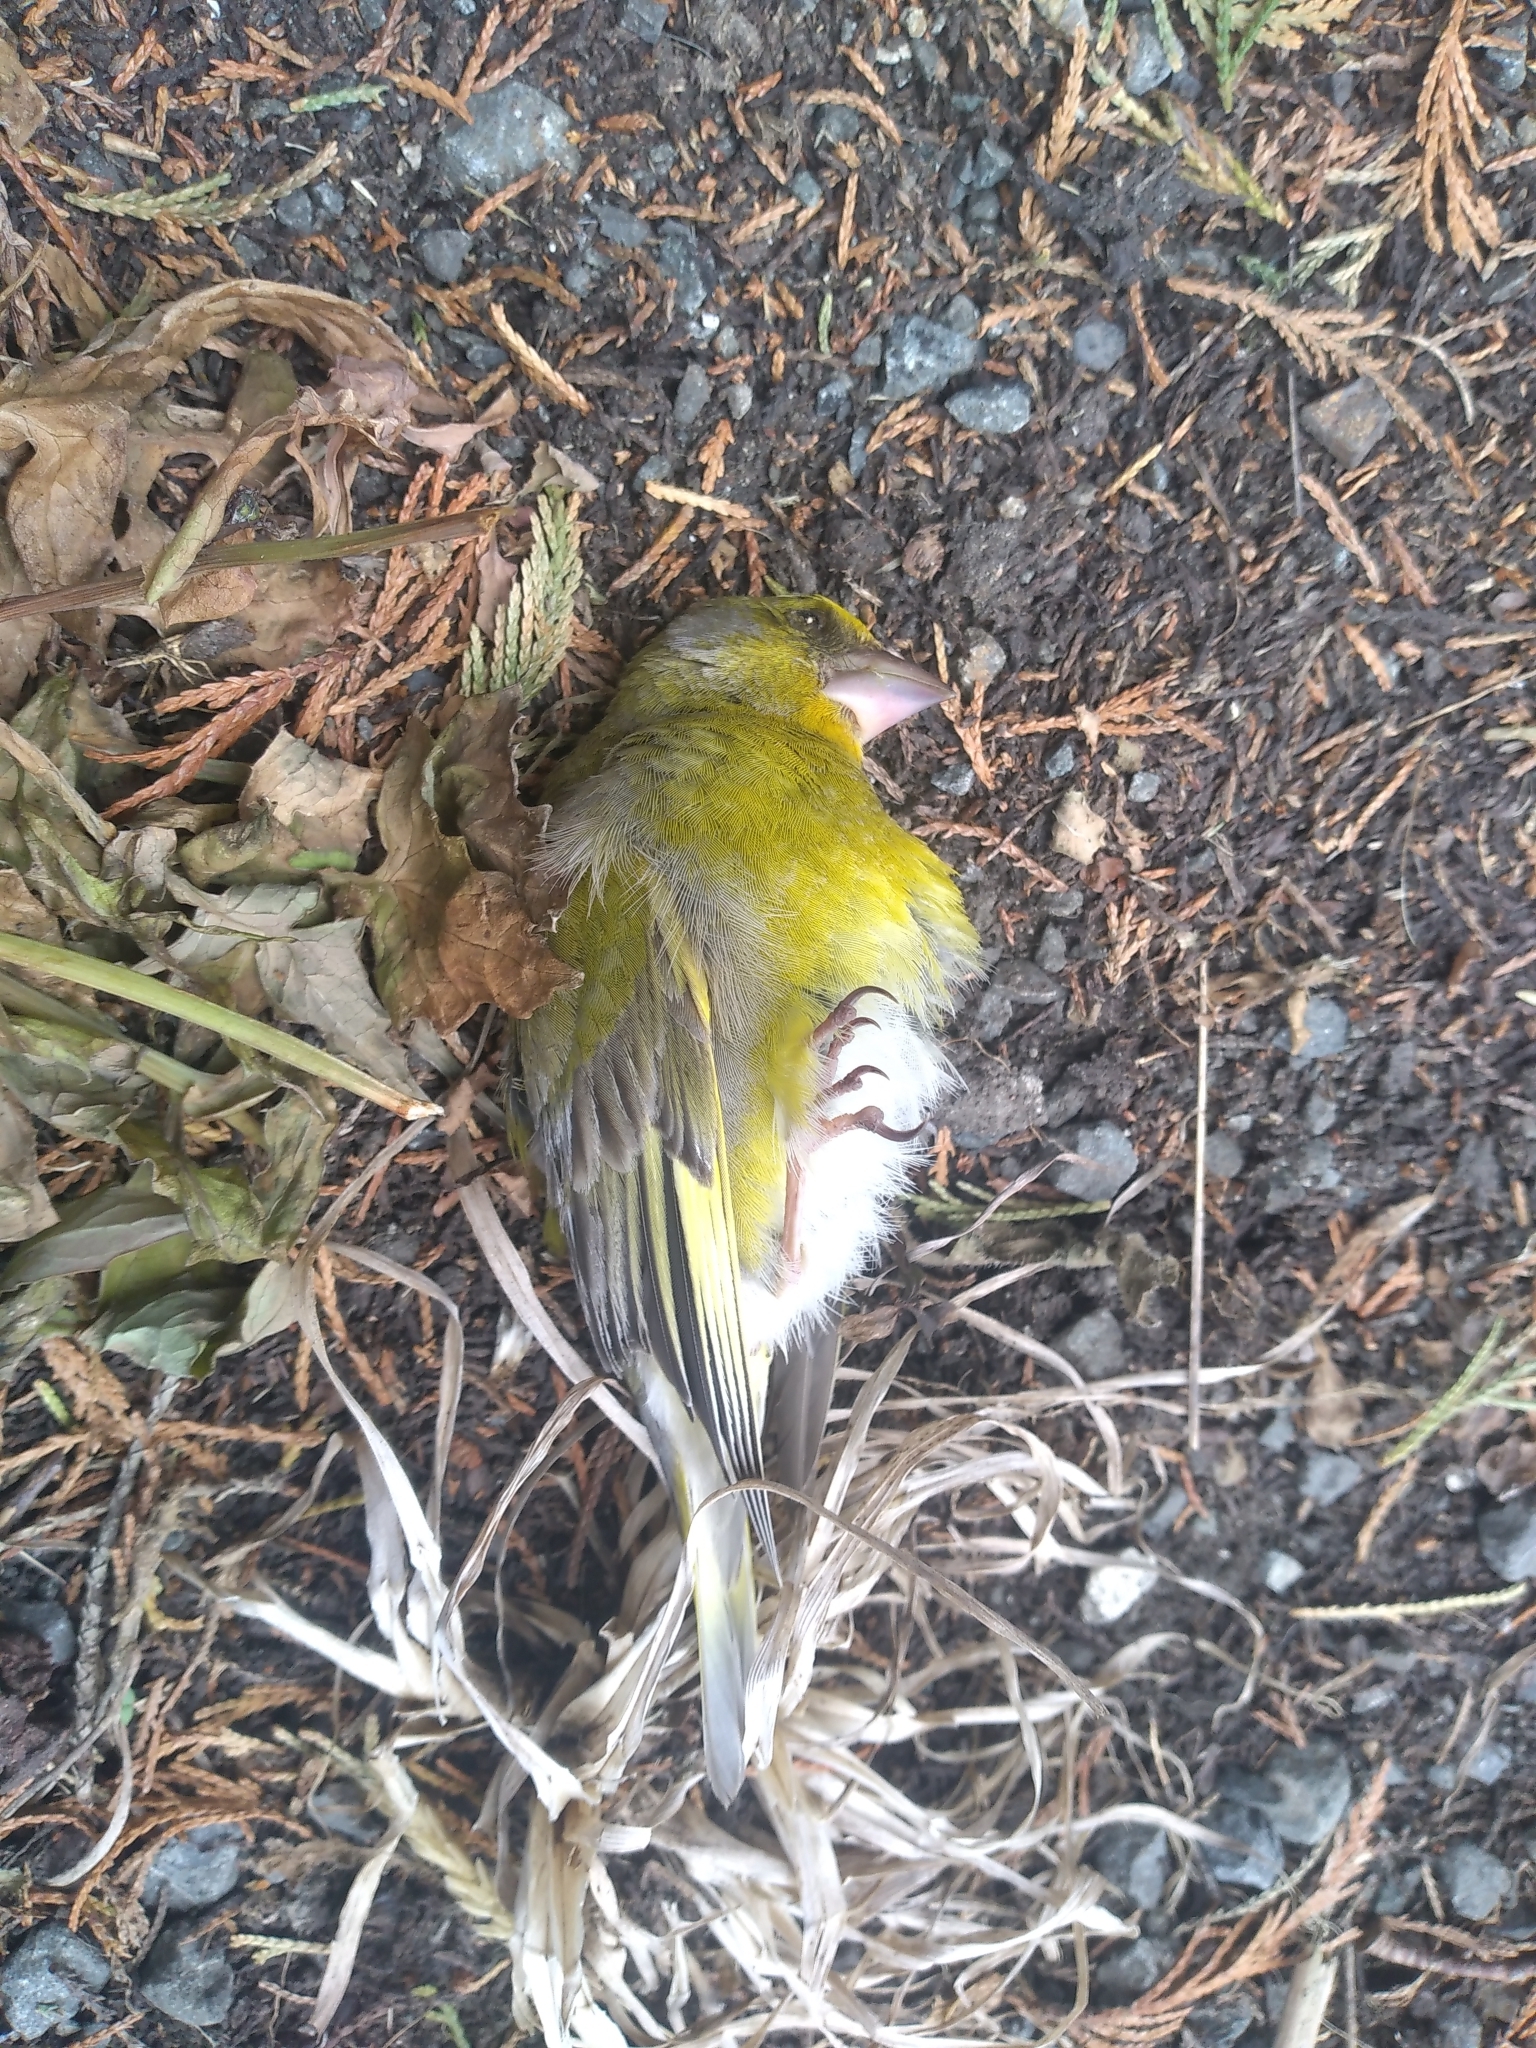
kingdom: Plantae
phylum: Tracheophyta
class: Liliopsida
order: Poales
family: Poaceae
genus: Chloris
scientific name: Chloris chloris
